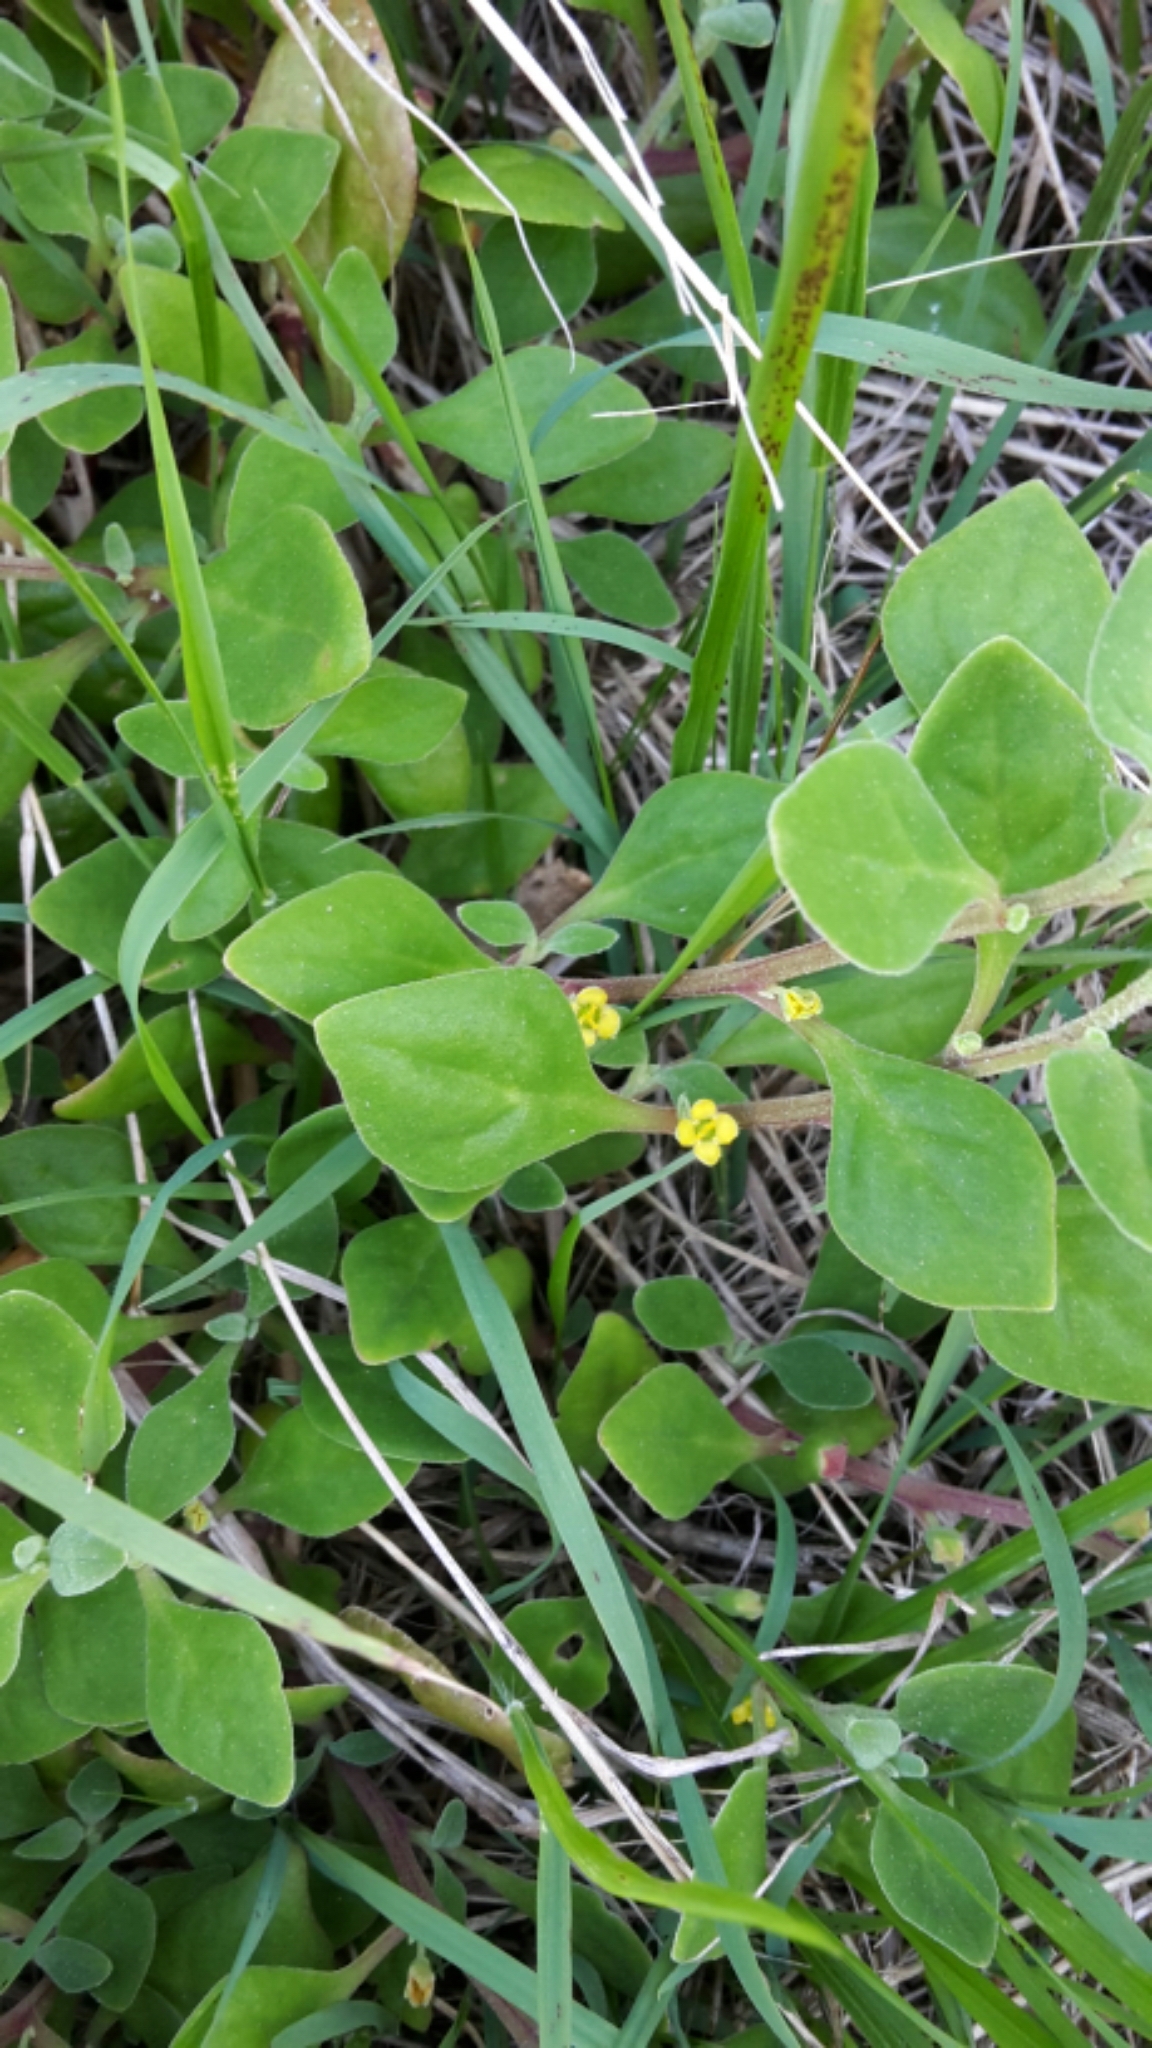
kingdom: Plantae
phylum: Tracheophyta
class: Magnoliopsida
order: Caryophyllales
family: Aizoaceae
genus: Tetragonia
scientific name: Tetragonia implexicoma
